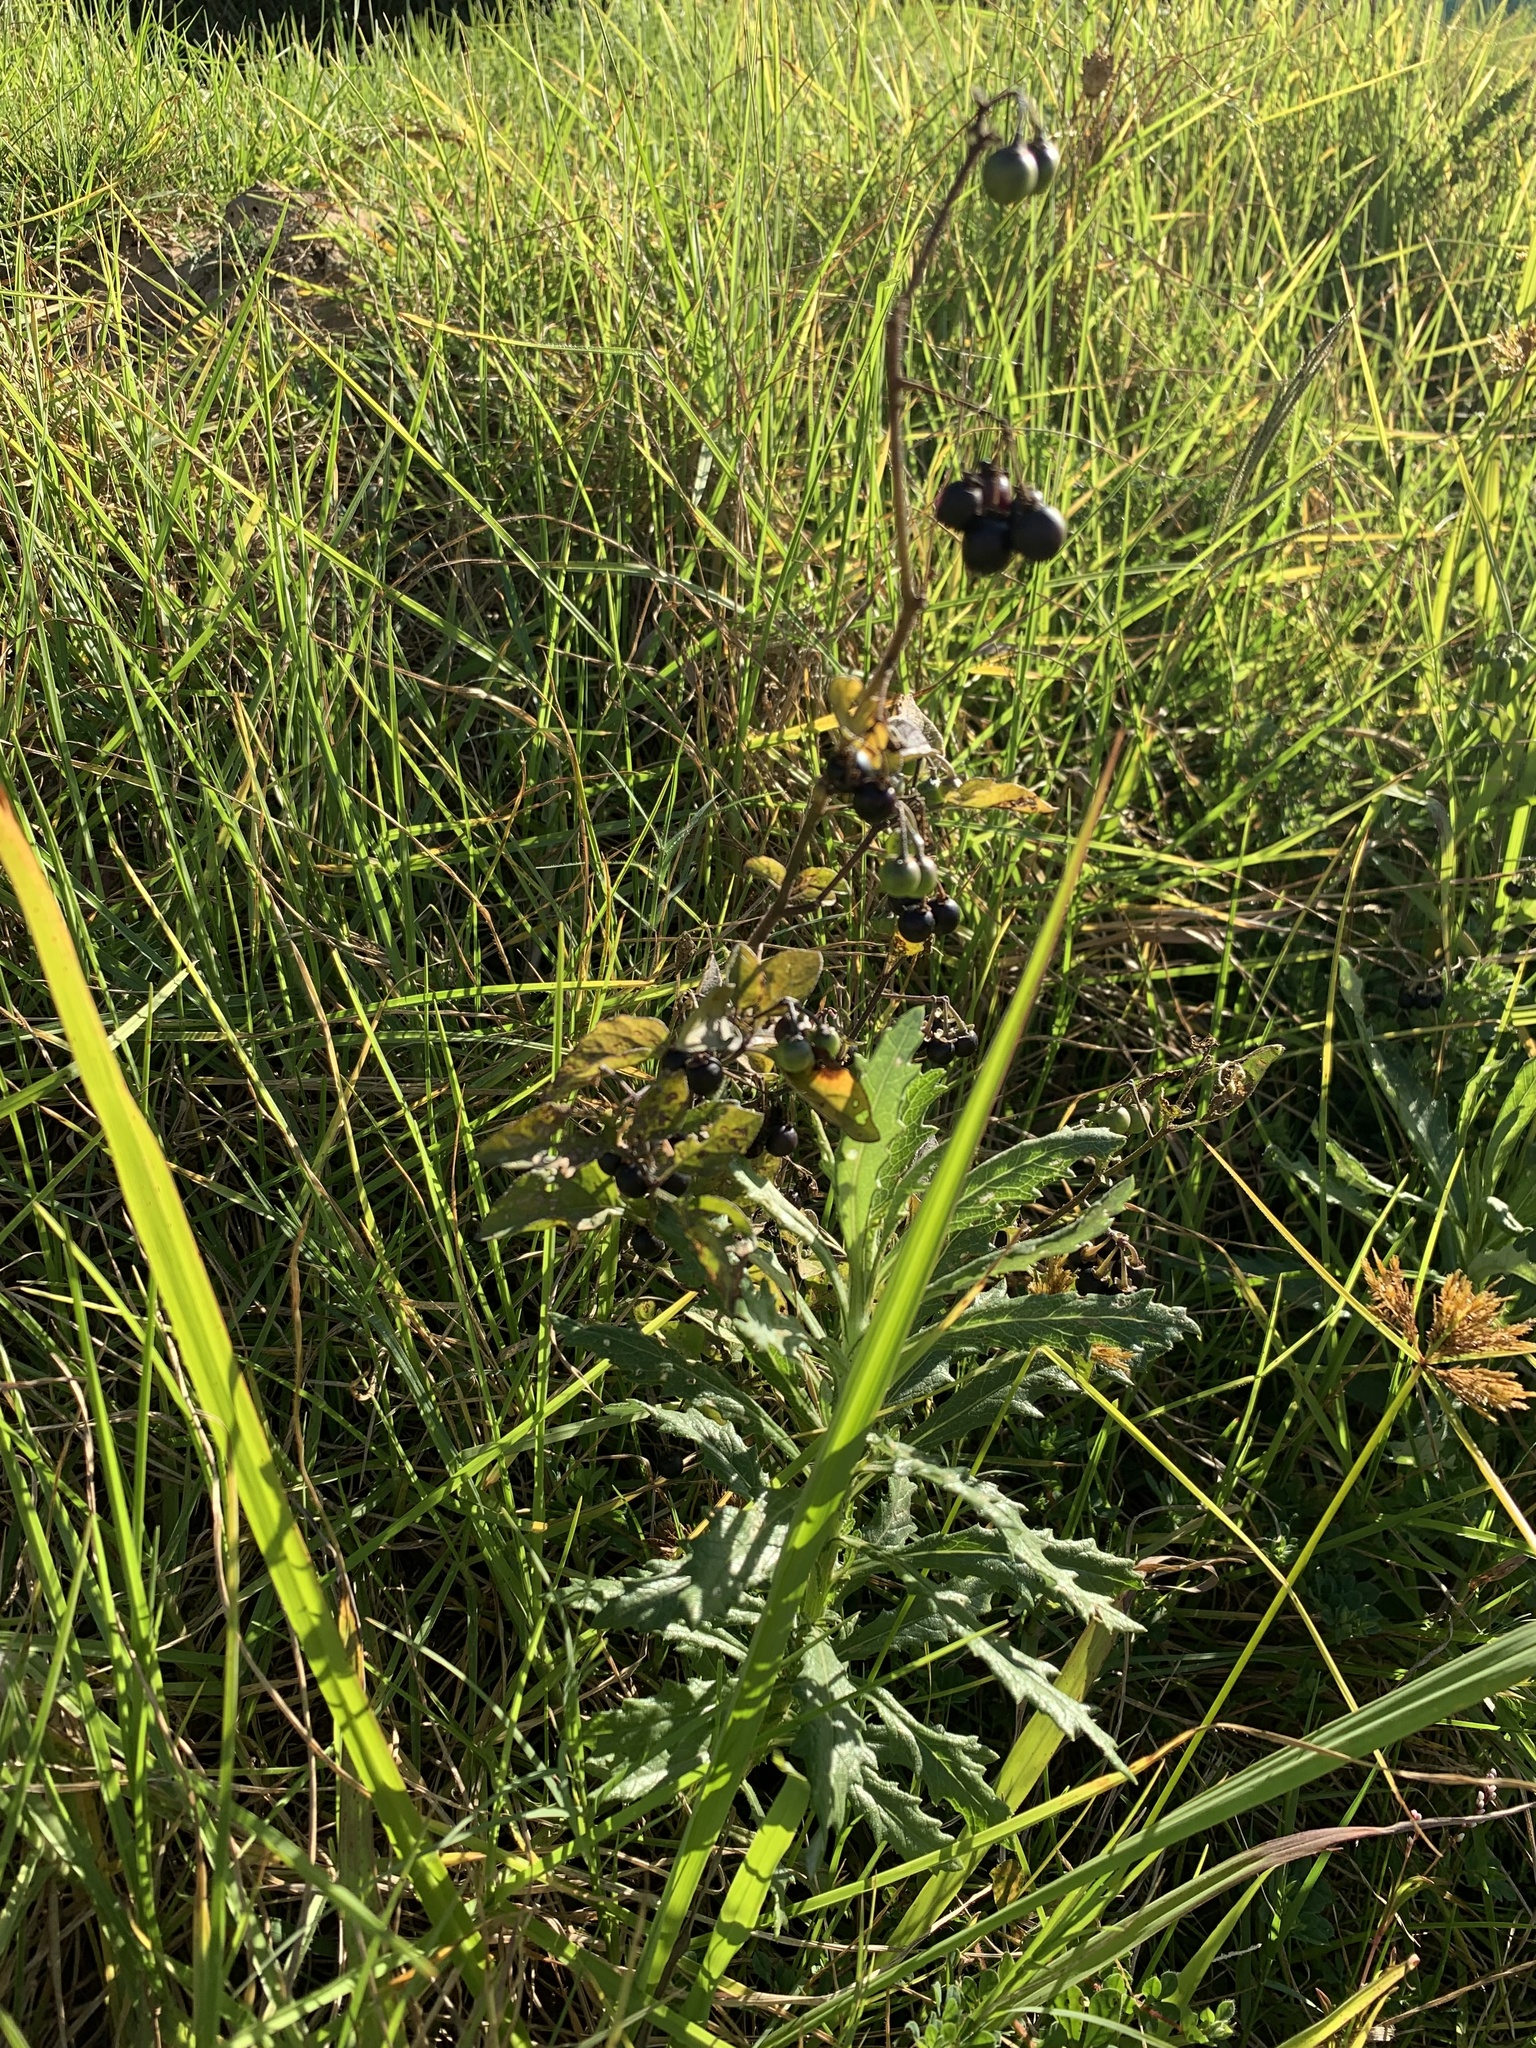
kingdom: Plantae
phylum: Tracheophyta
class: Magnoliopsida
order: Solanales
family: Solanaceae
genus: Solanum
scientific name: Solanum nigrum
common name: Black nightshade
